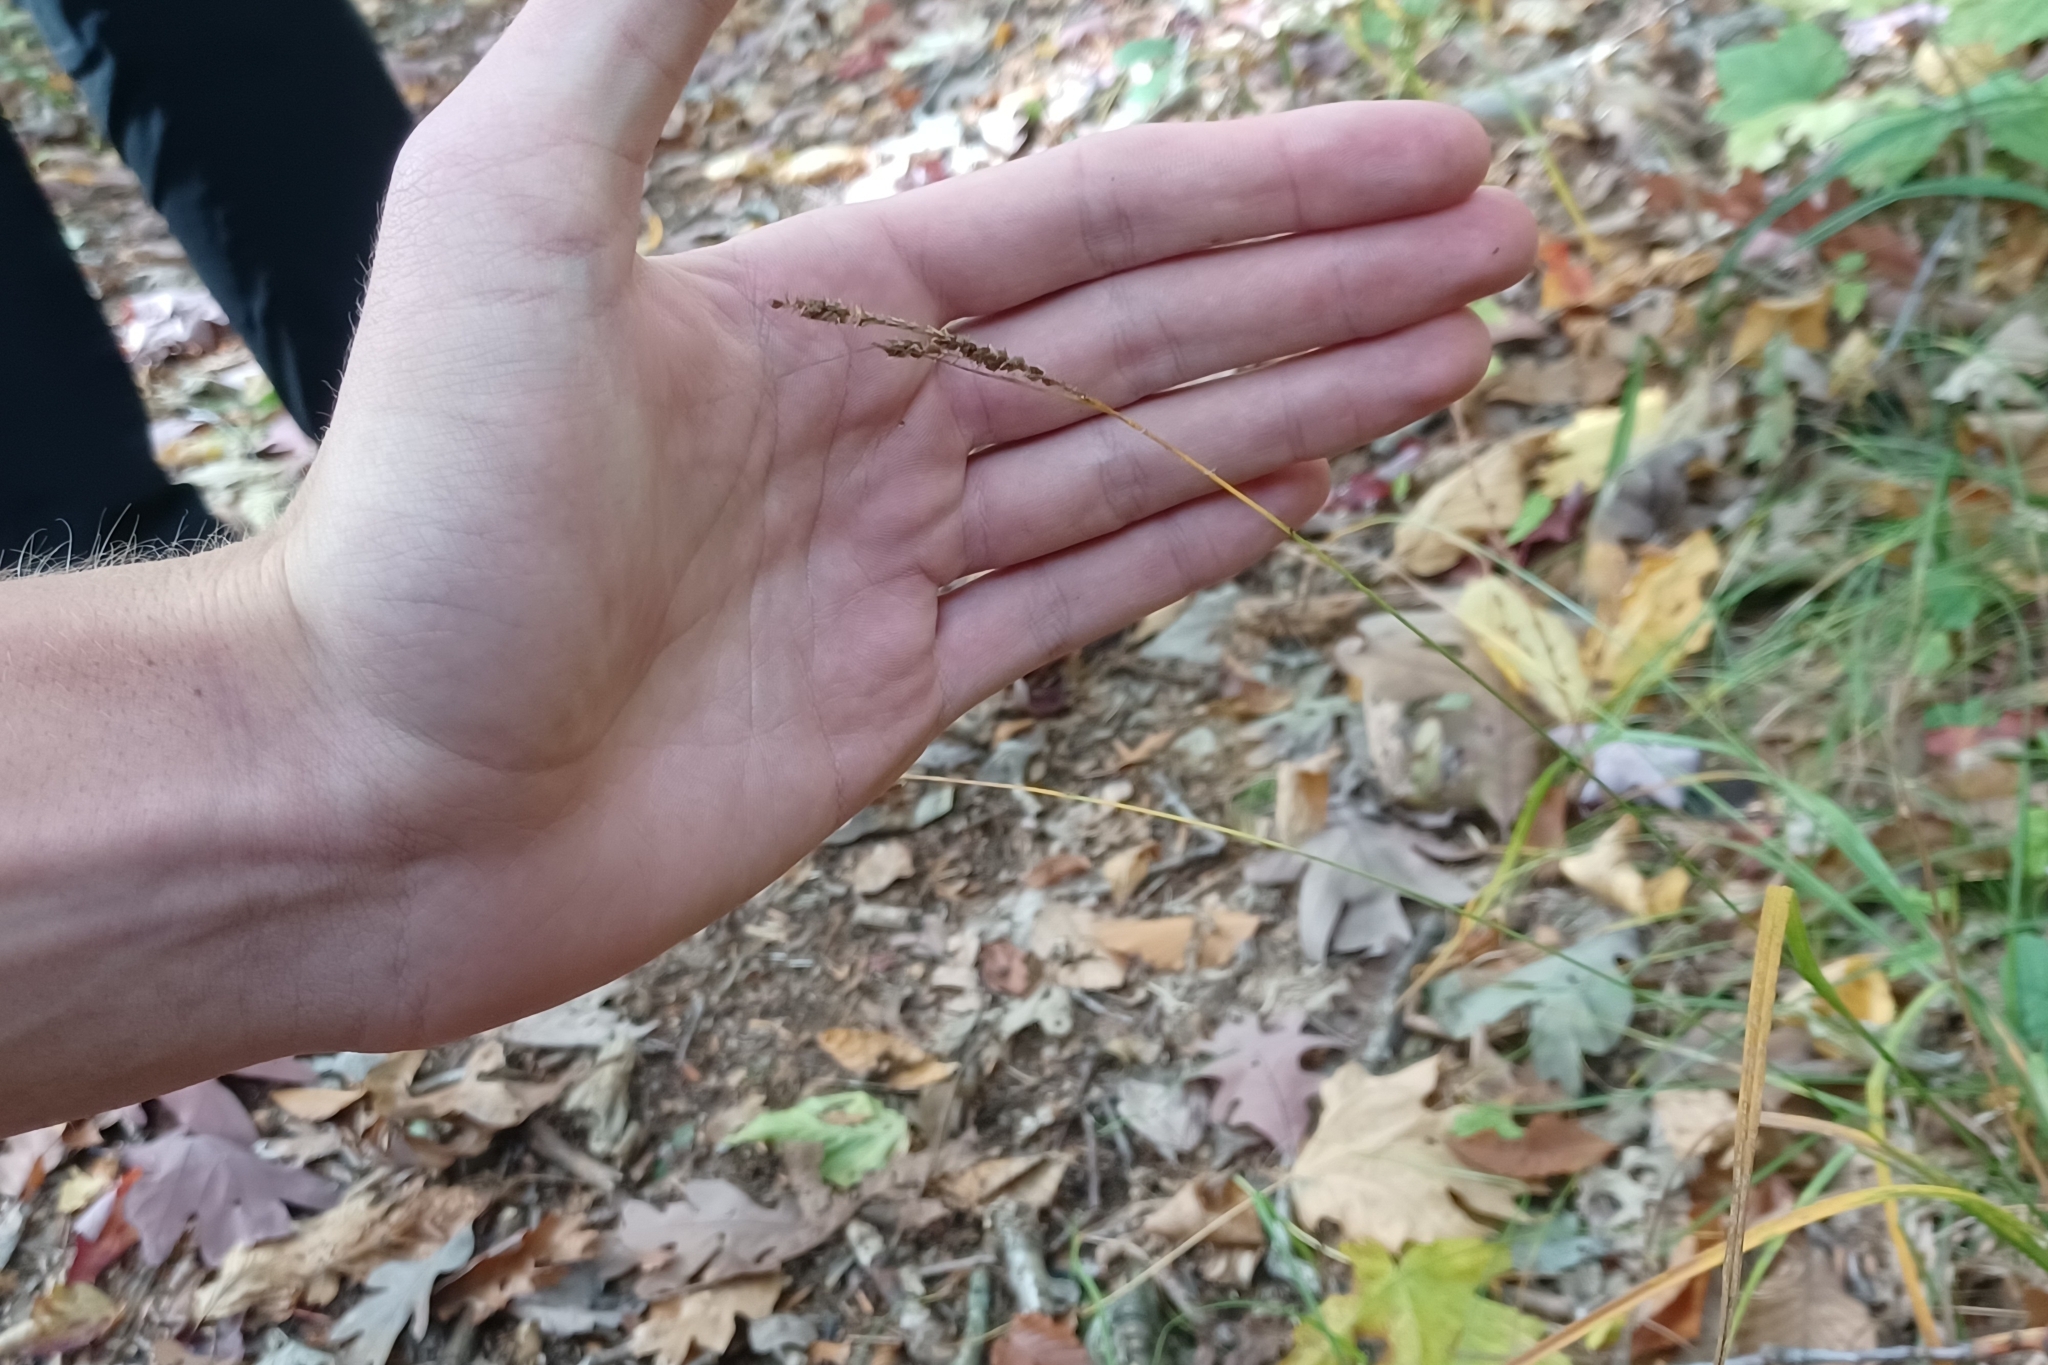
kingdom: Plantae
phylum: Tracheophyta
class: Liliopsida
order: Poales
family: Cyperaceae
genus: Carex
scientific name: Carex virescens
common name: Ribbed sedge
